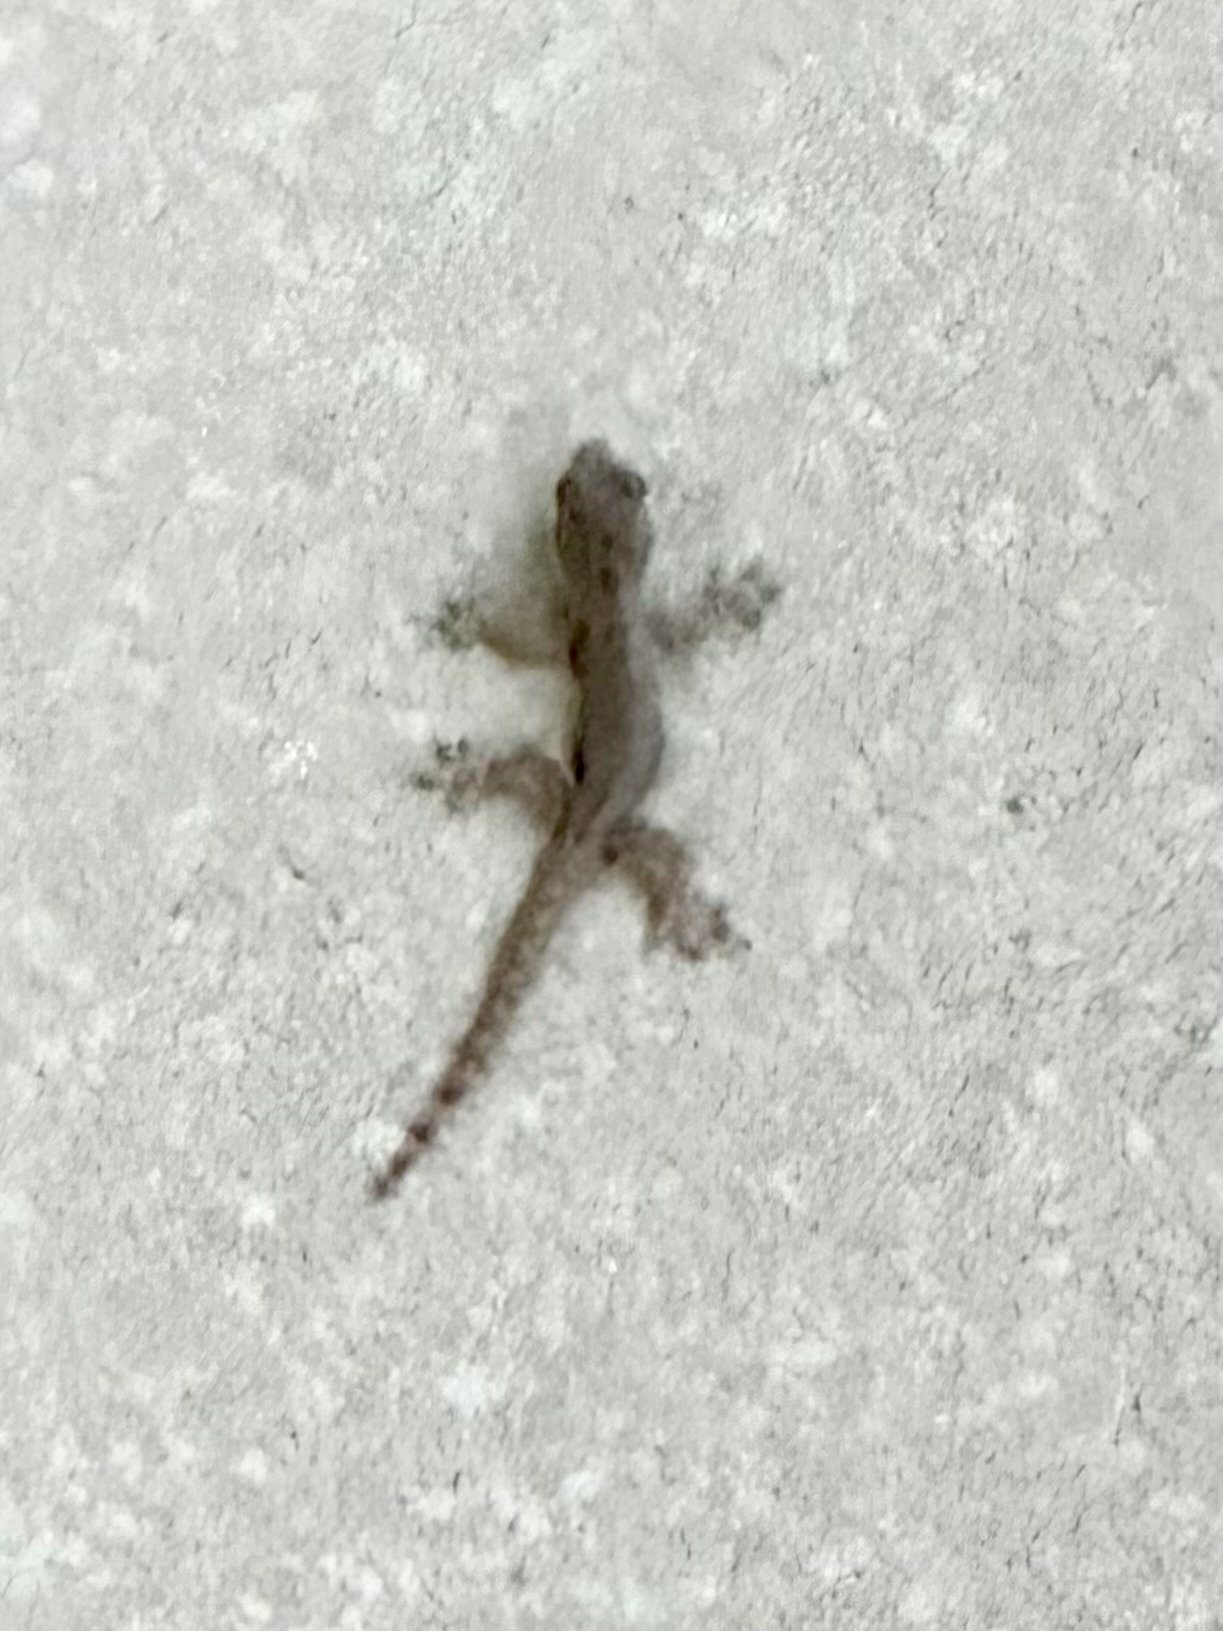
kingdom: Animalia
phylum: Chordata
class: Squamata
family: Gekkonidae
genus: Hemidactylus
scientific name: Hemidactylus platyurus
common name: Flat-tailed house gecko
